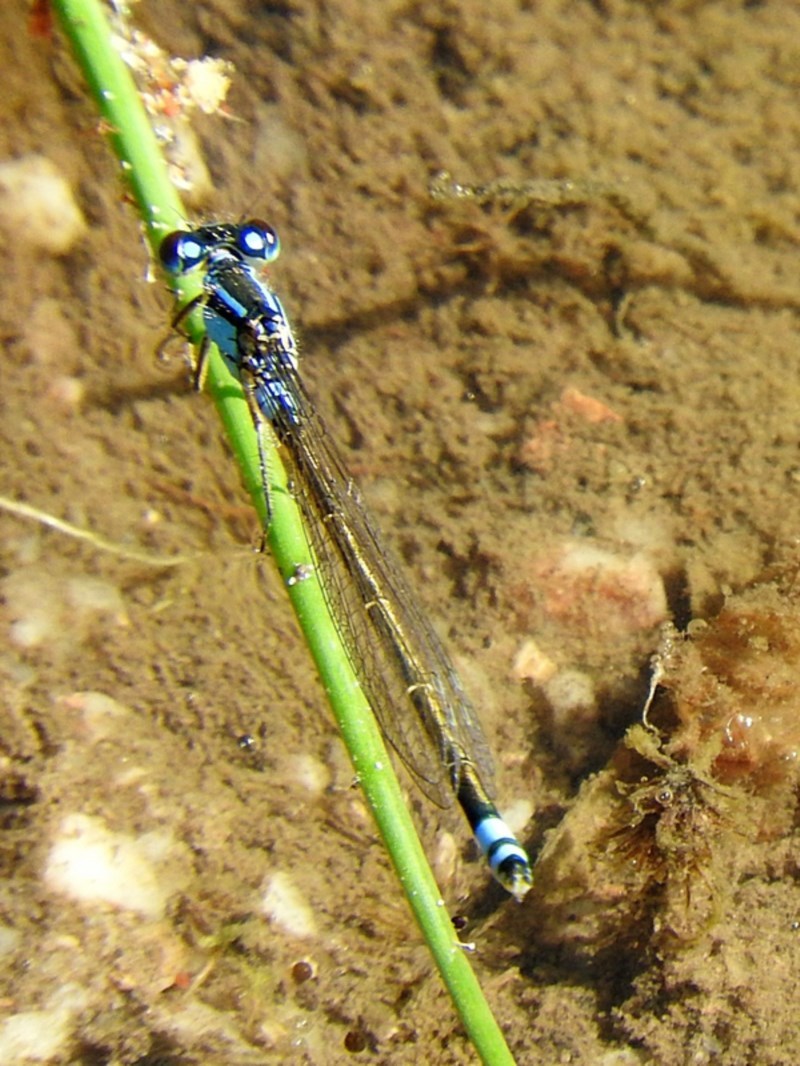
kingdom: Animalia
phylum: Arthropoda
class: Insecta
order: Odonata
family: Coenagrionidae
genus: Ischnura
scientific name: Ischnura heterosticta
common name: Common bluetail
